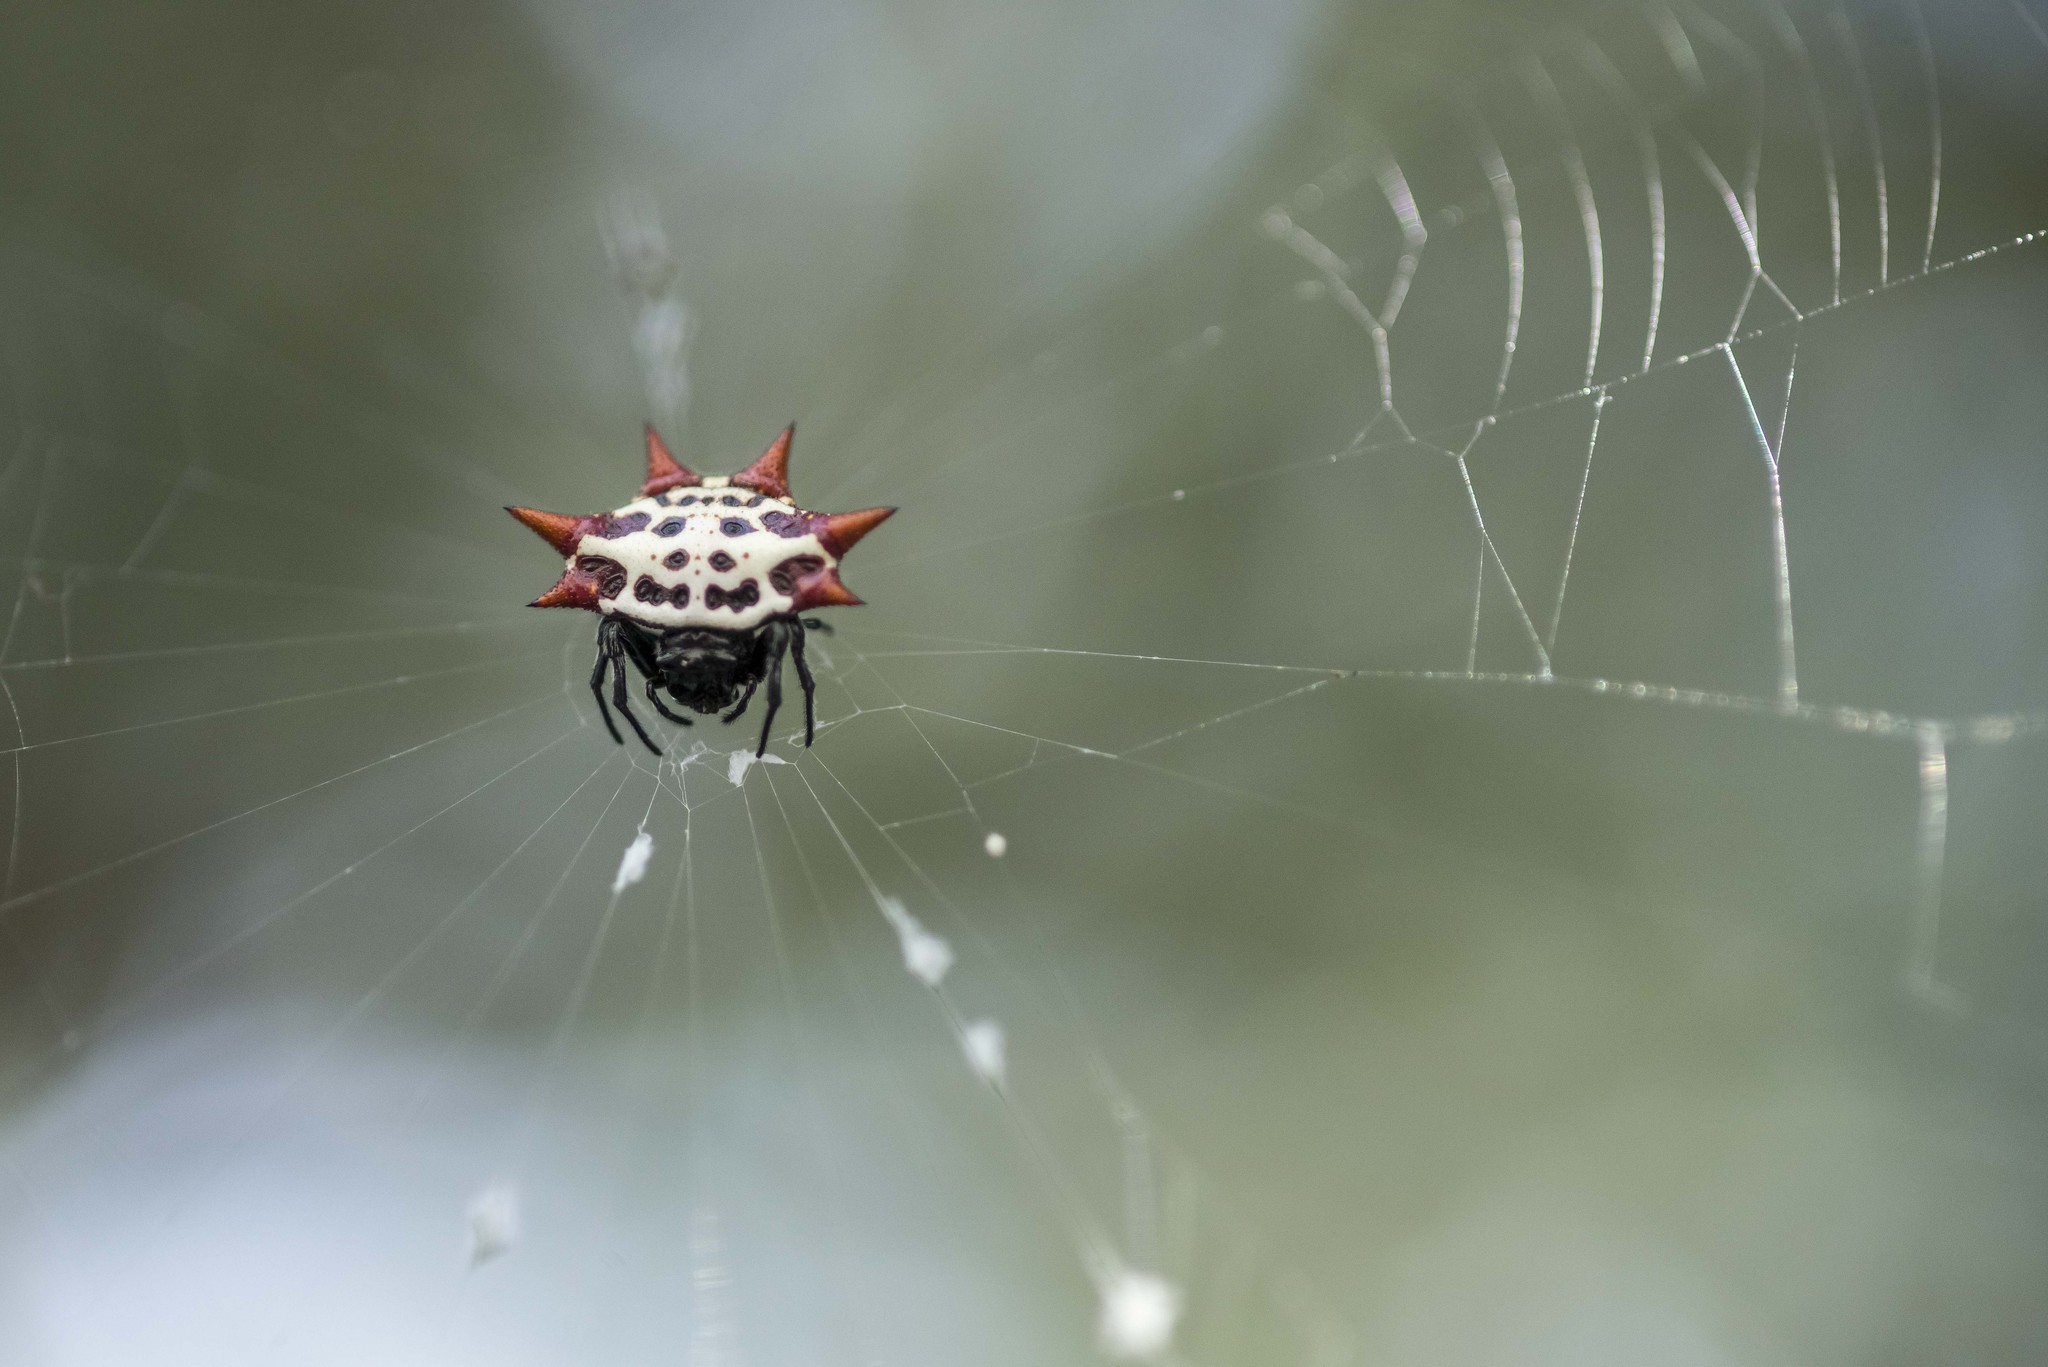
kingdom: Animalia
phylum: Arthropoda
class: Arachnida
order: Araneae
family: Araneidae
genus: Gasteracantha
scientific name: Gasteracantha cancriformis
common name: Orb weavers
